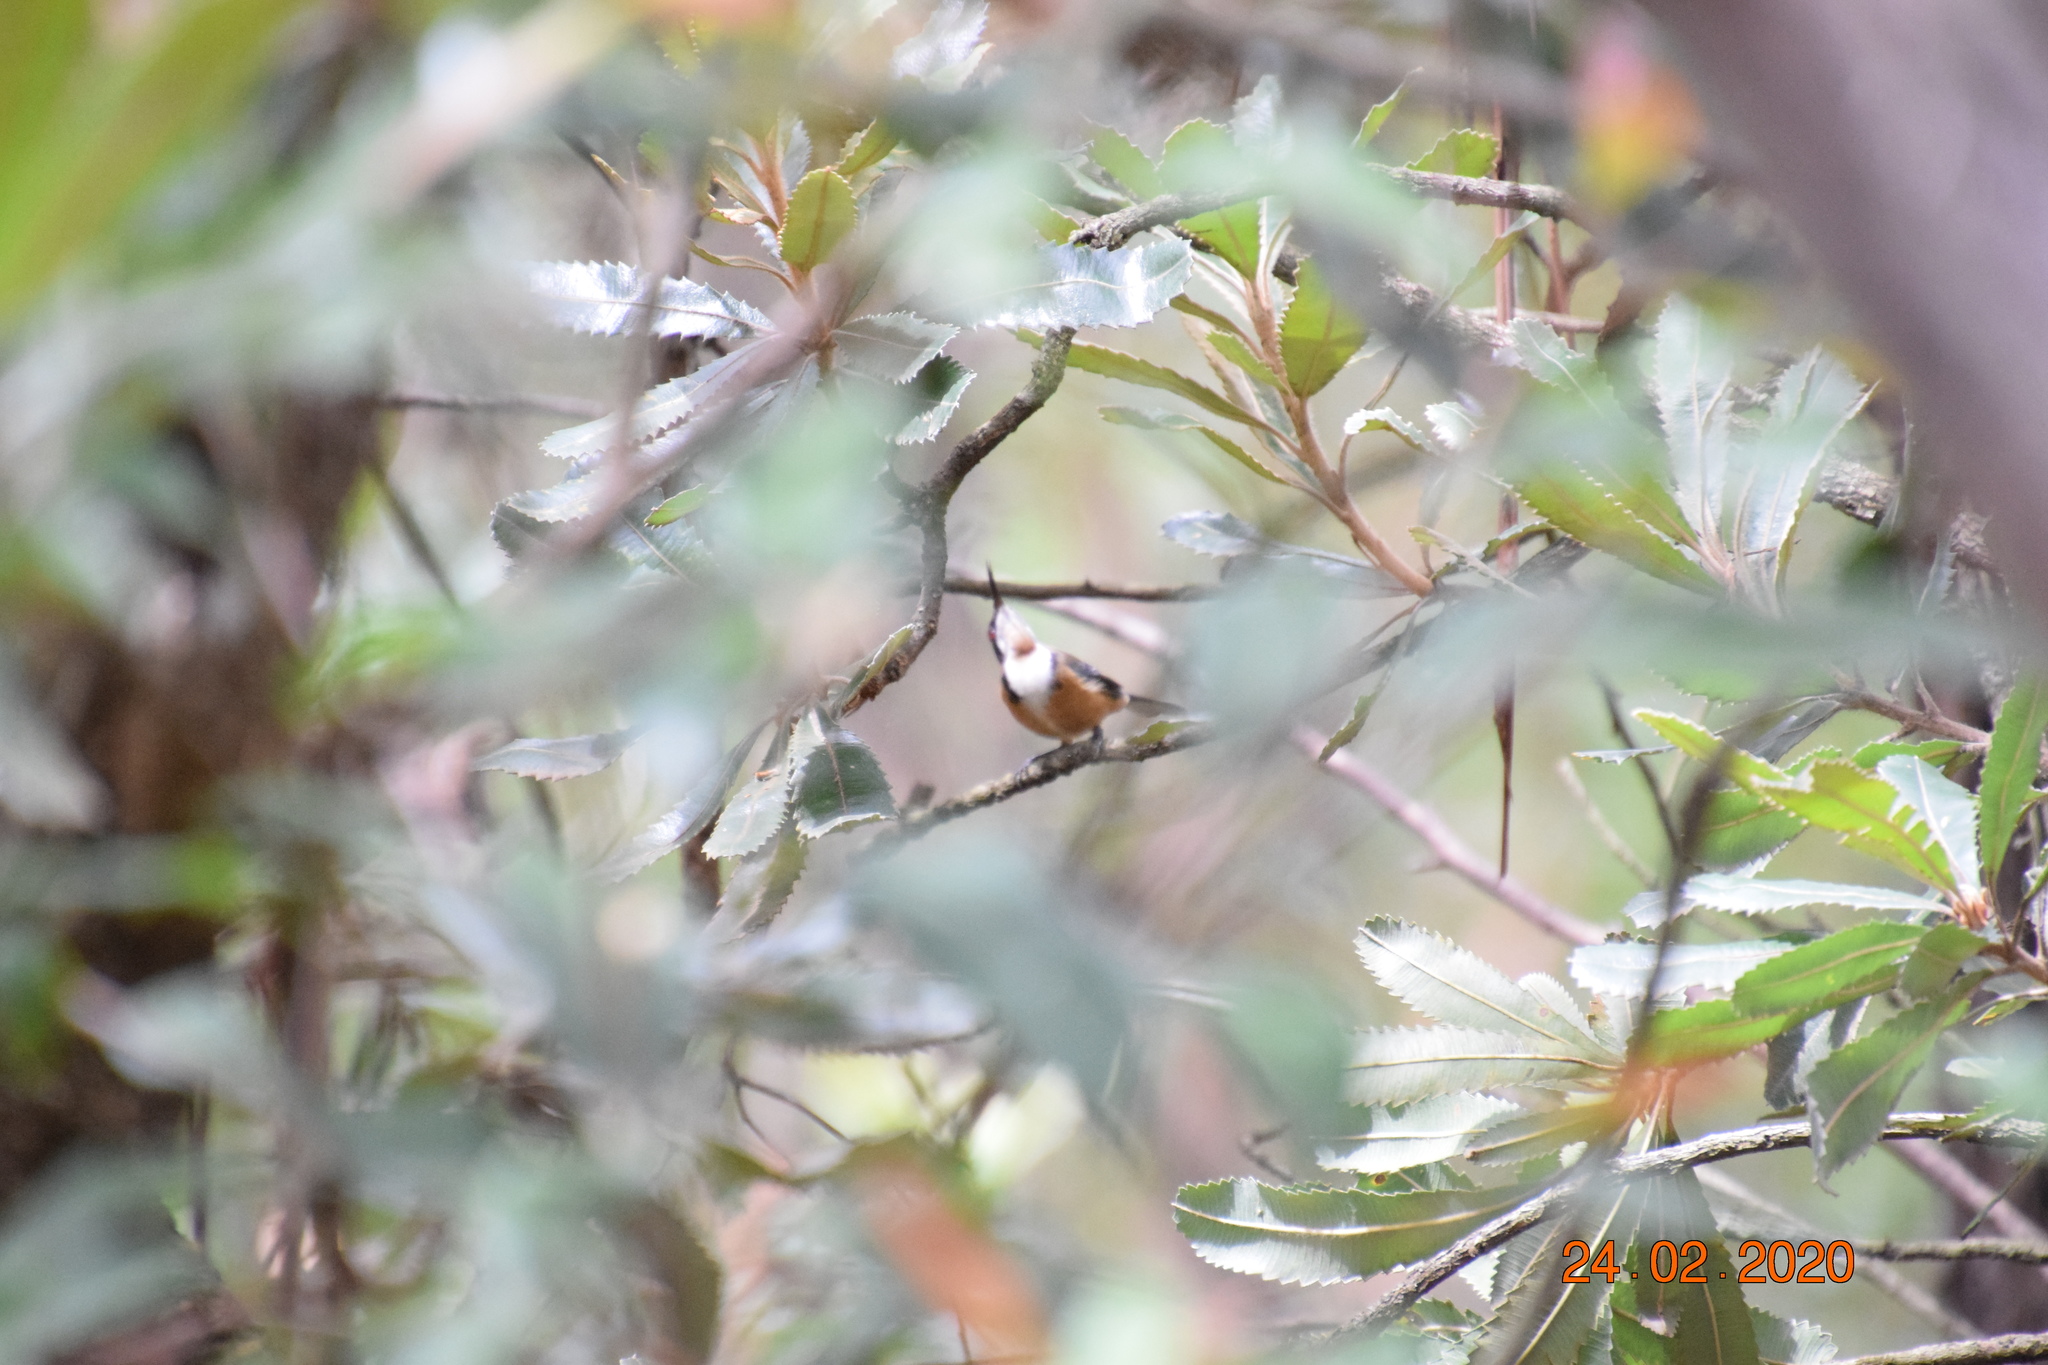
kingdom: Animalia
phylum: Chordata
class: Aves
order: Passeriformes
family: Meliphagidae
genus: Acanthorhynchus
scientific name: Acanthorhynchus tenuirostris
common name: Eastern spinebill
